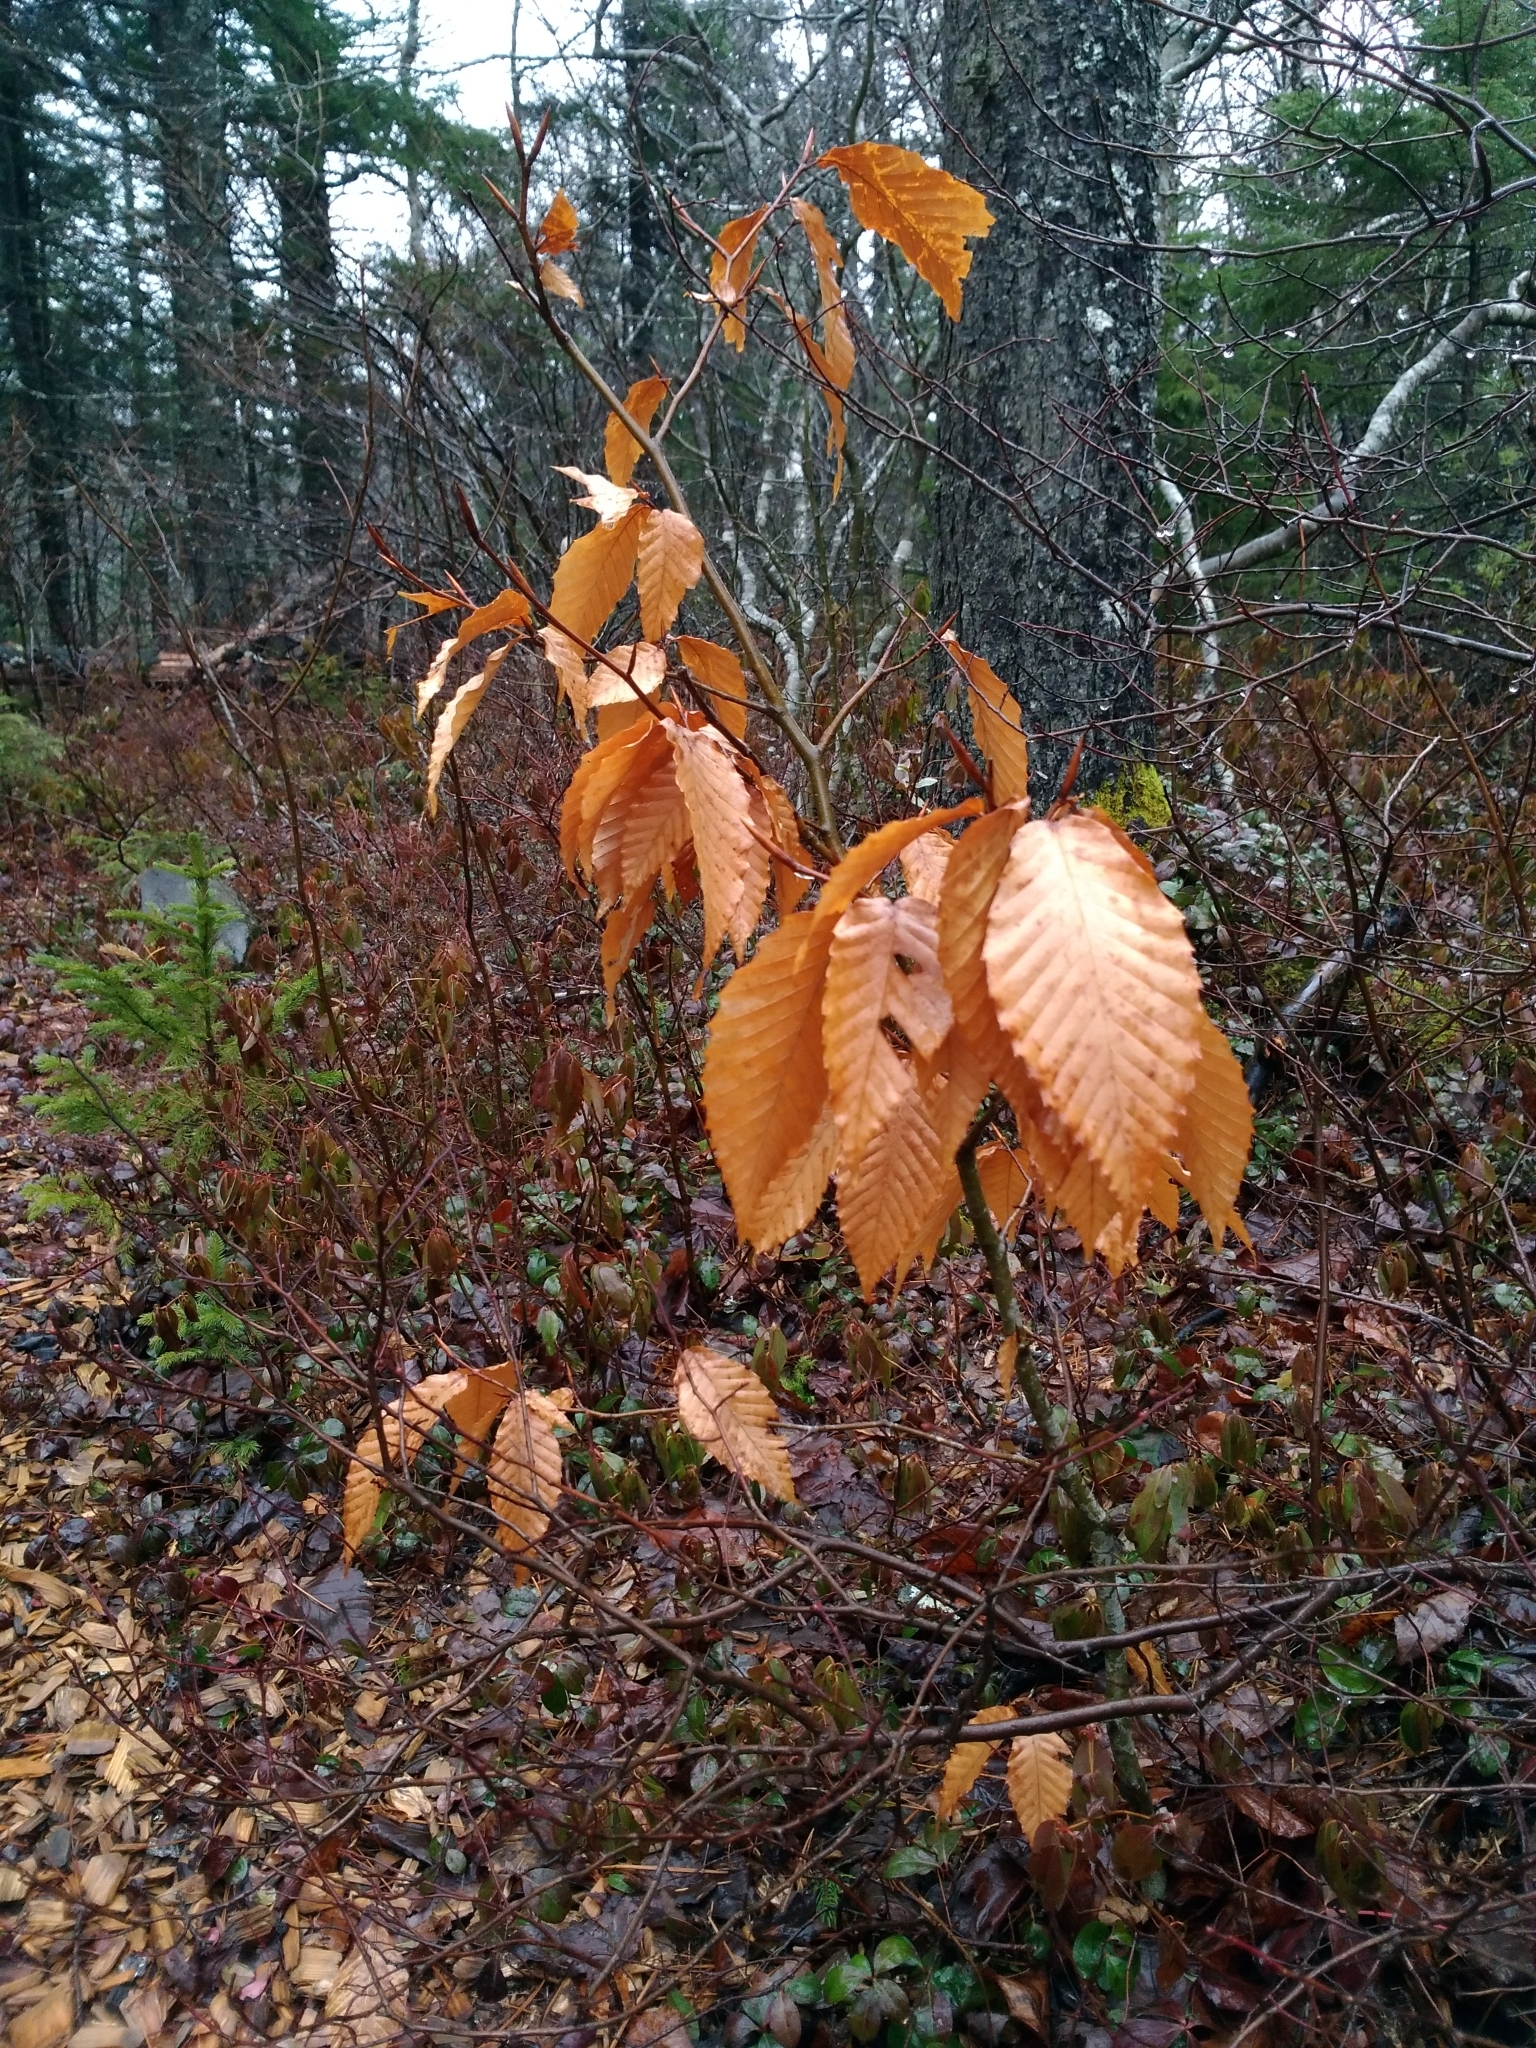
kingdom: Plantae
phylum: Tracheophyta
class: Magnoliopsida
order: Fagales
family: Fagaceae
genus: Fagus
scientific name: Fagus grandifolia
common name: American beech
